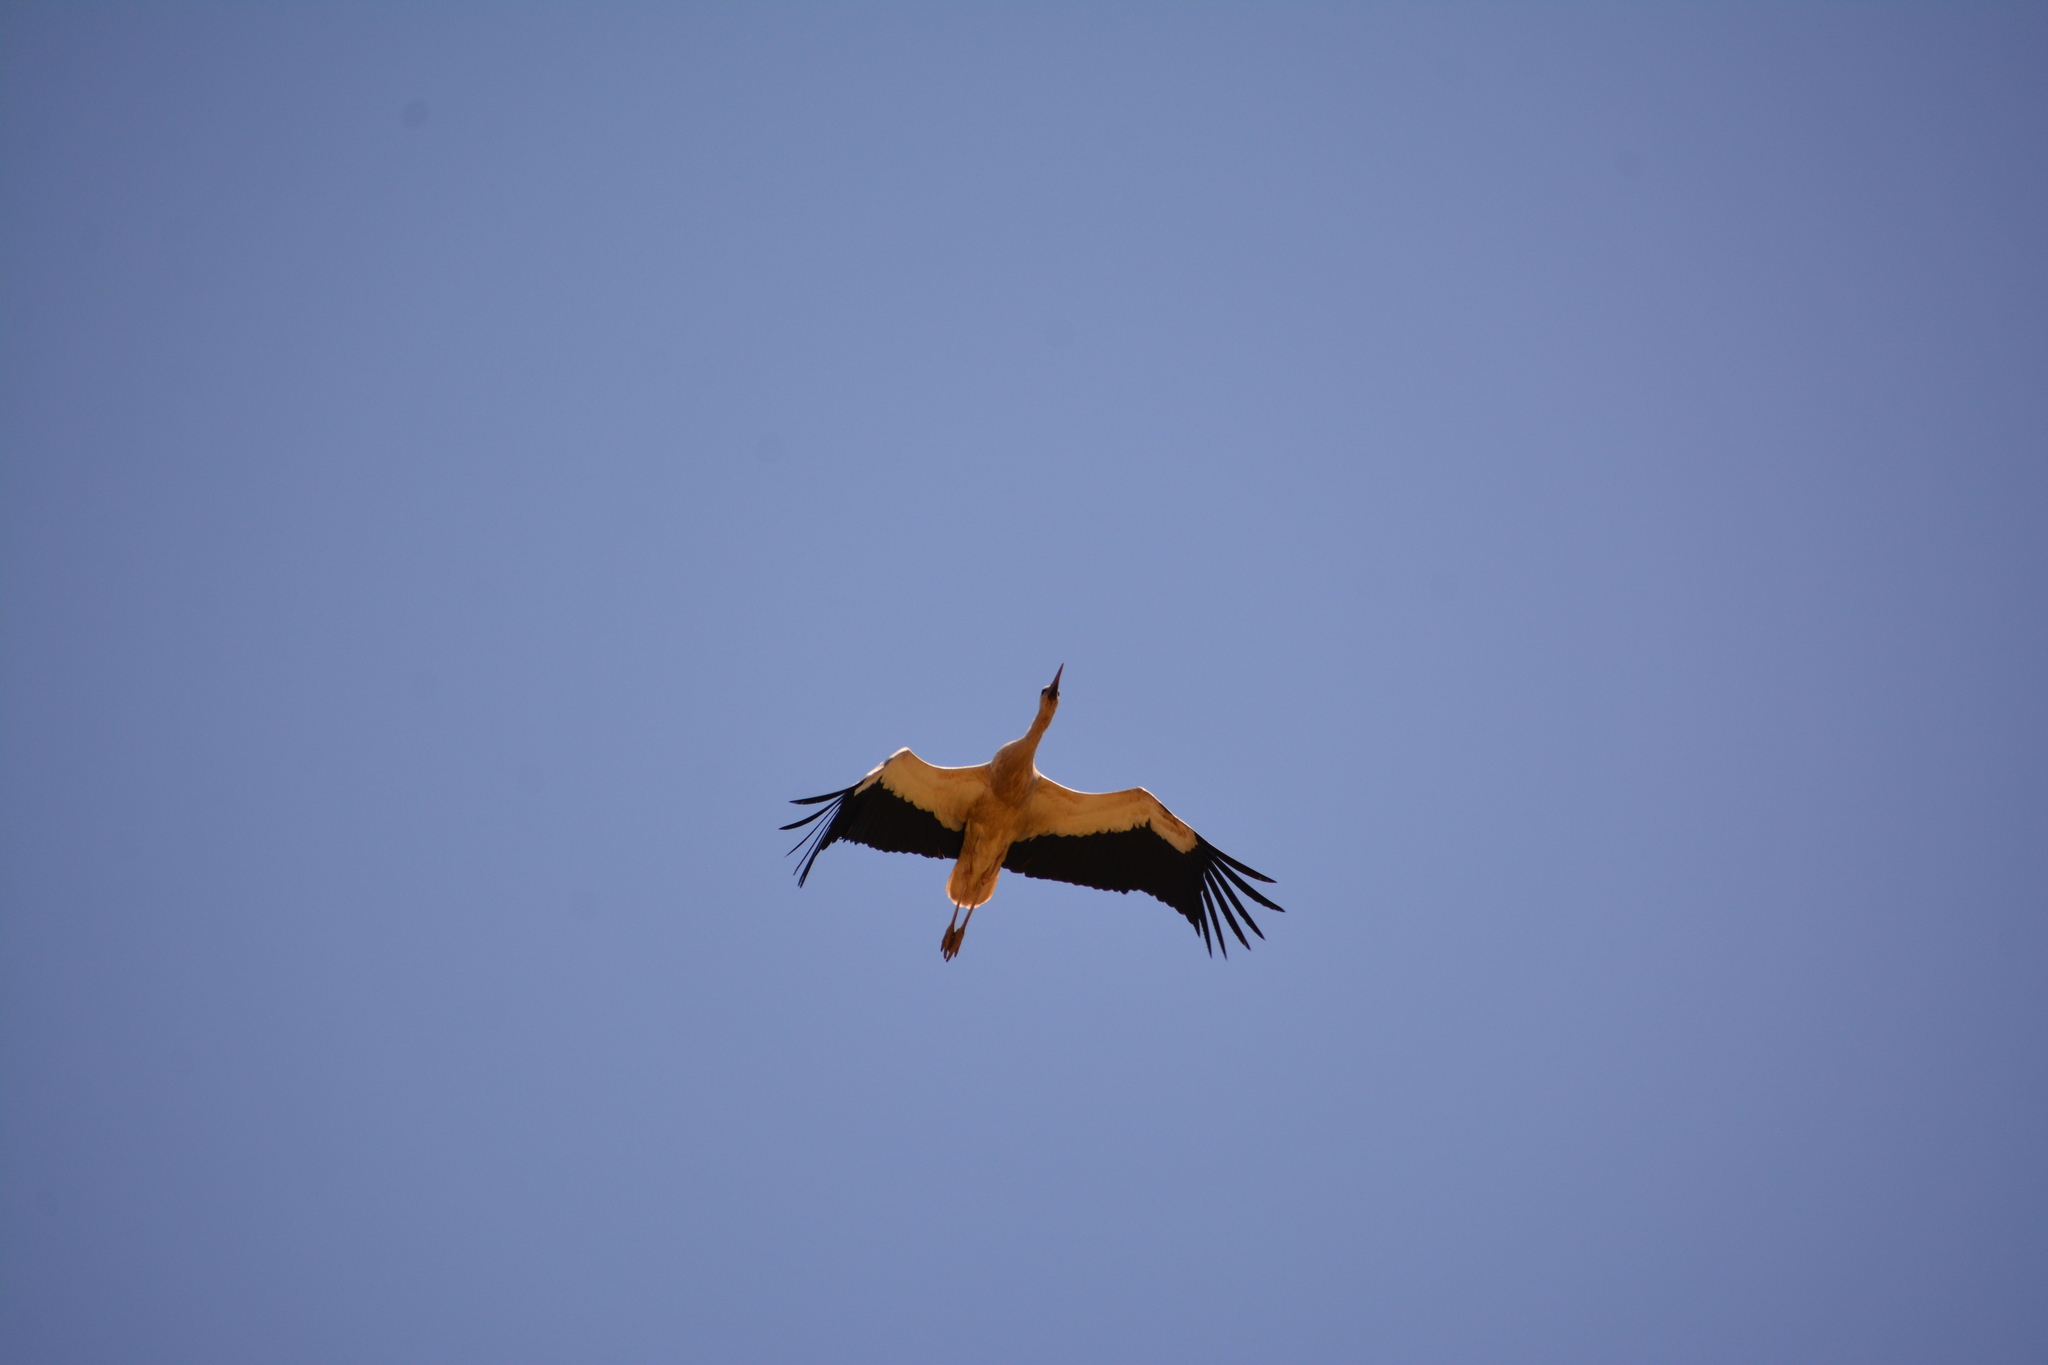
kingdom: Animalia
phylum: Chordata
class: Aves
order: Ciconiiformes
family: Ciconiidae
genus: Ciconia
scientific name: Ciconia ciconia
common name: White stork
